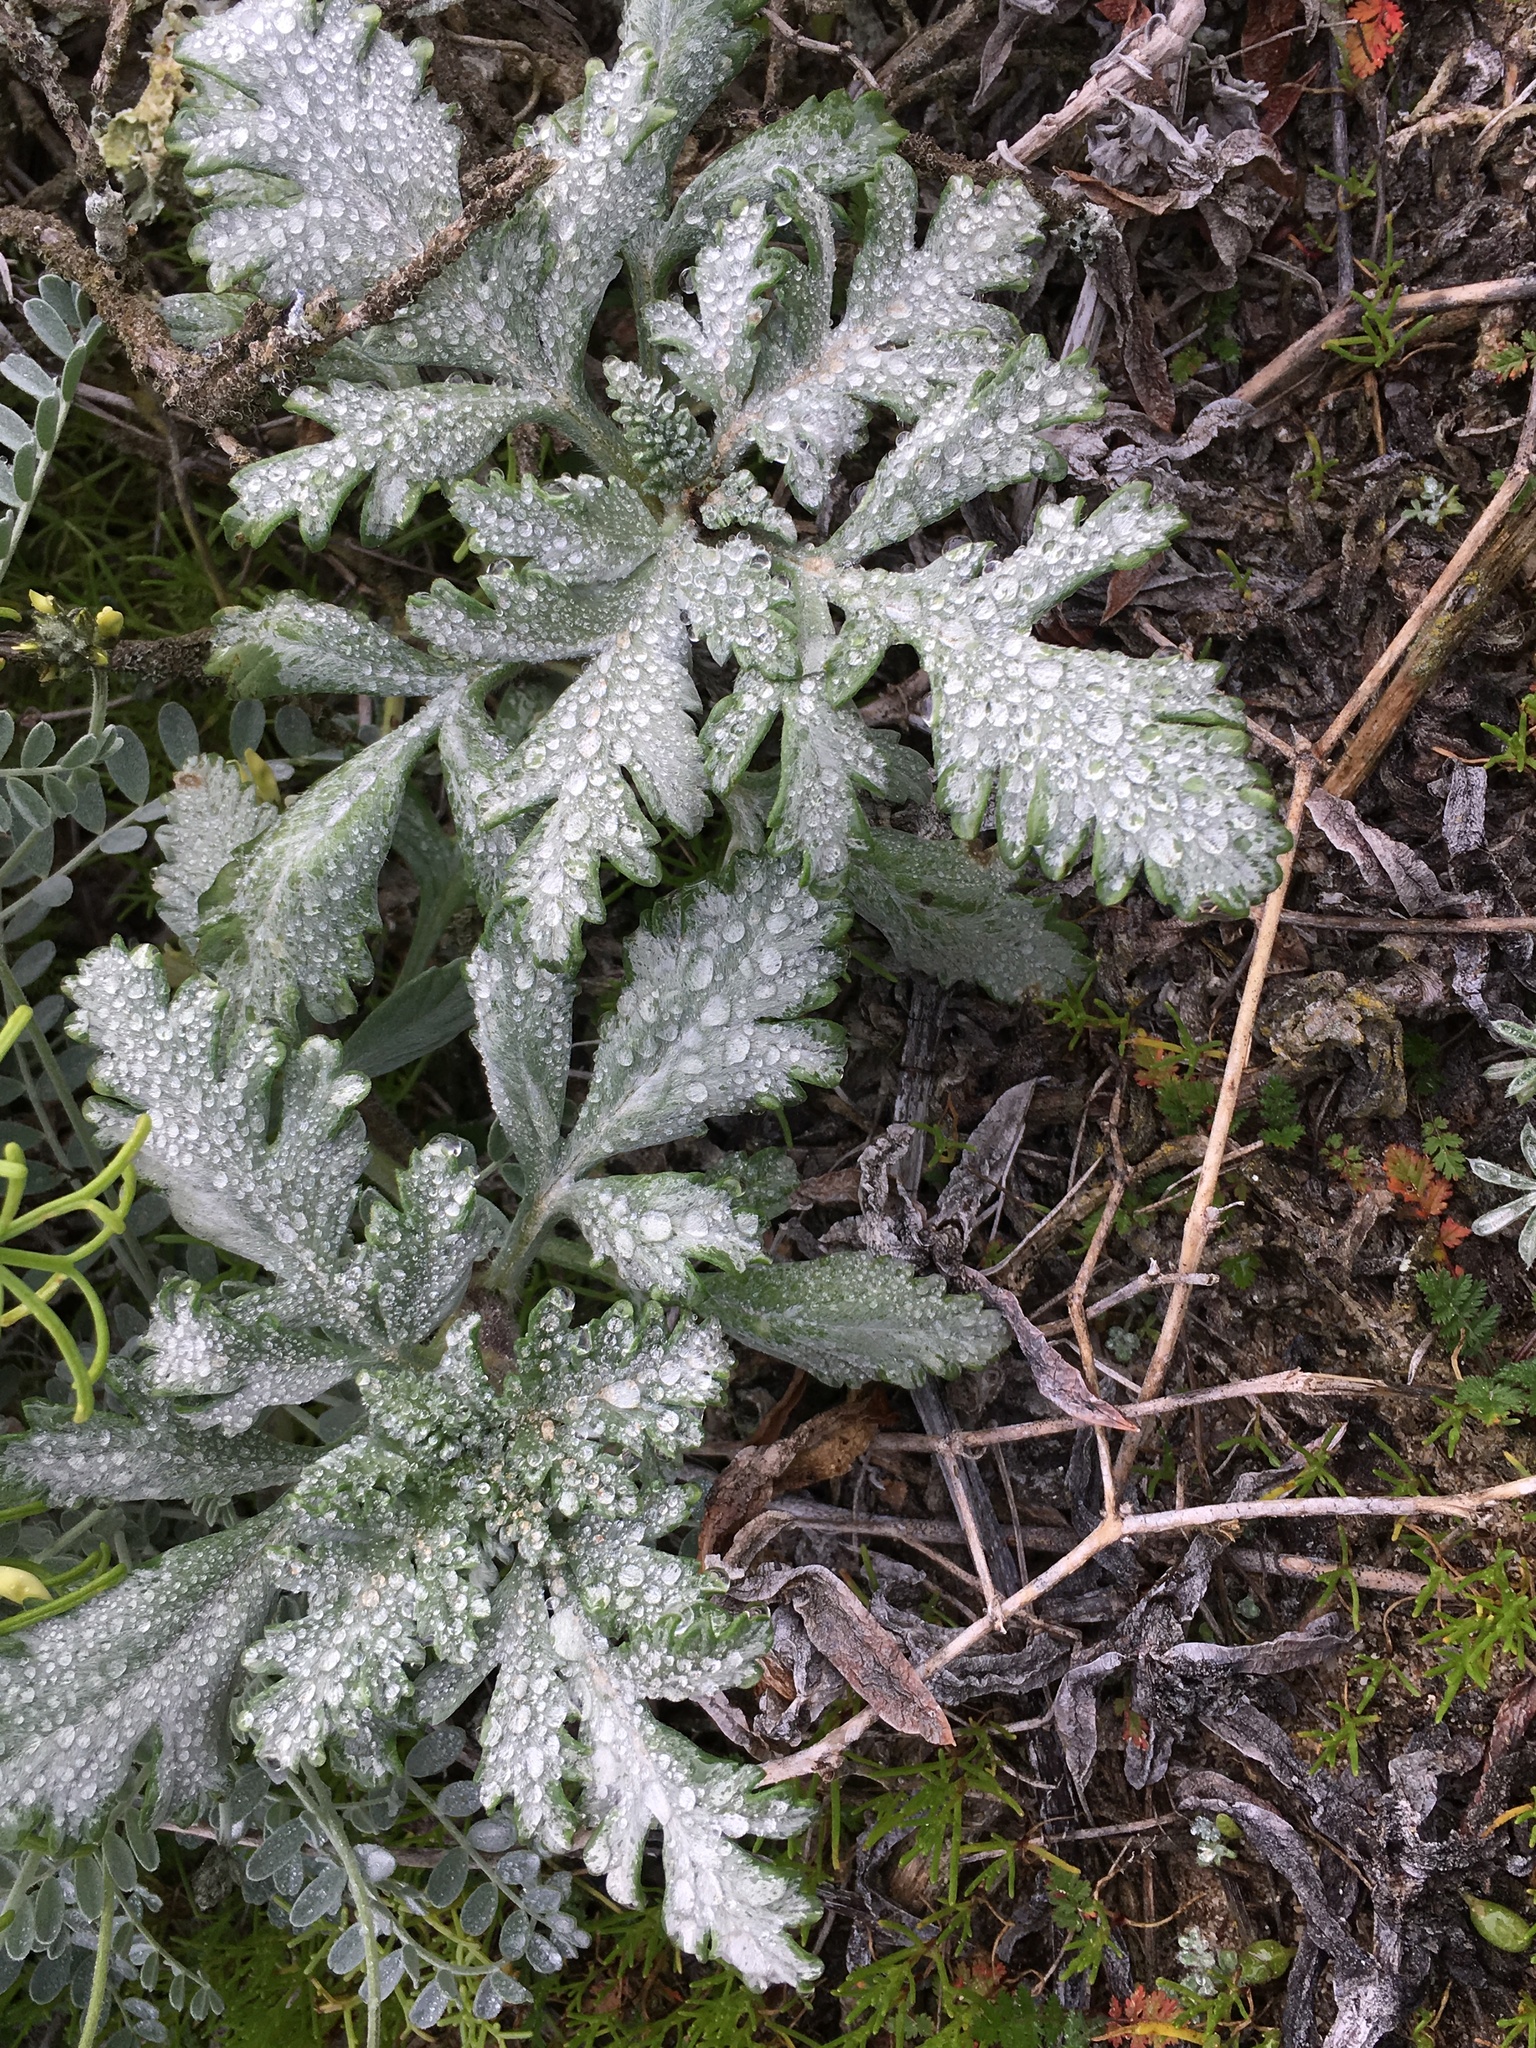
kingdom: Plantae
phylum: Tracheophyta
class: Magnoliopsida
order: Asterales
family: Asteraceae
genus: Ambrosia
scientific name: Ambrosia chamissonis
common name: Beachbur
